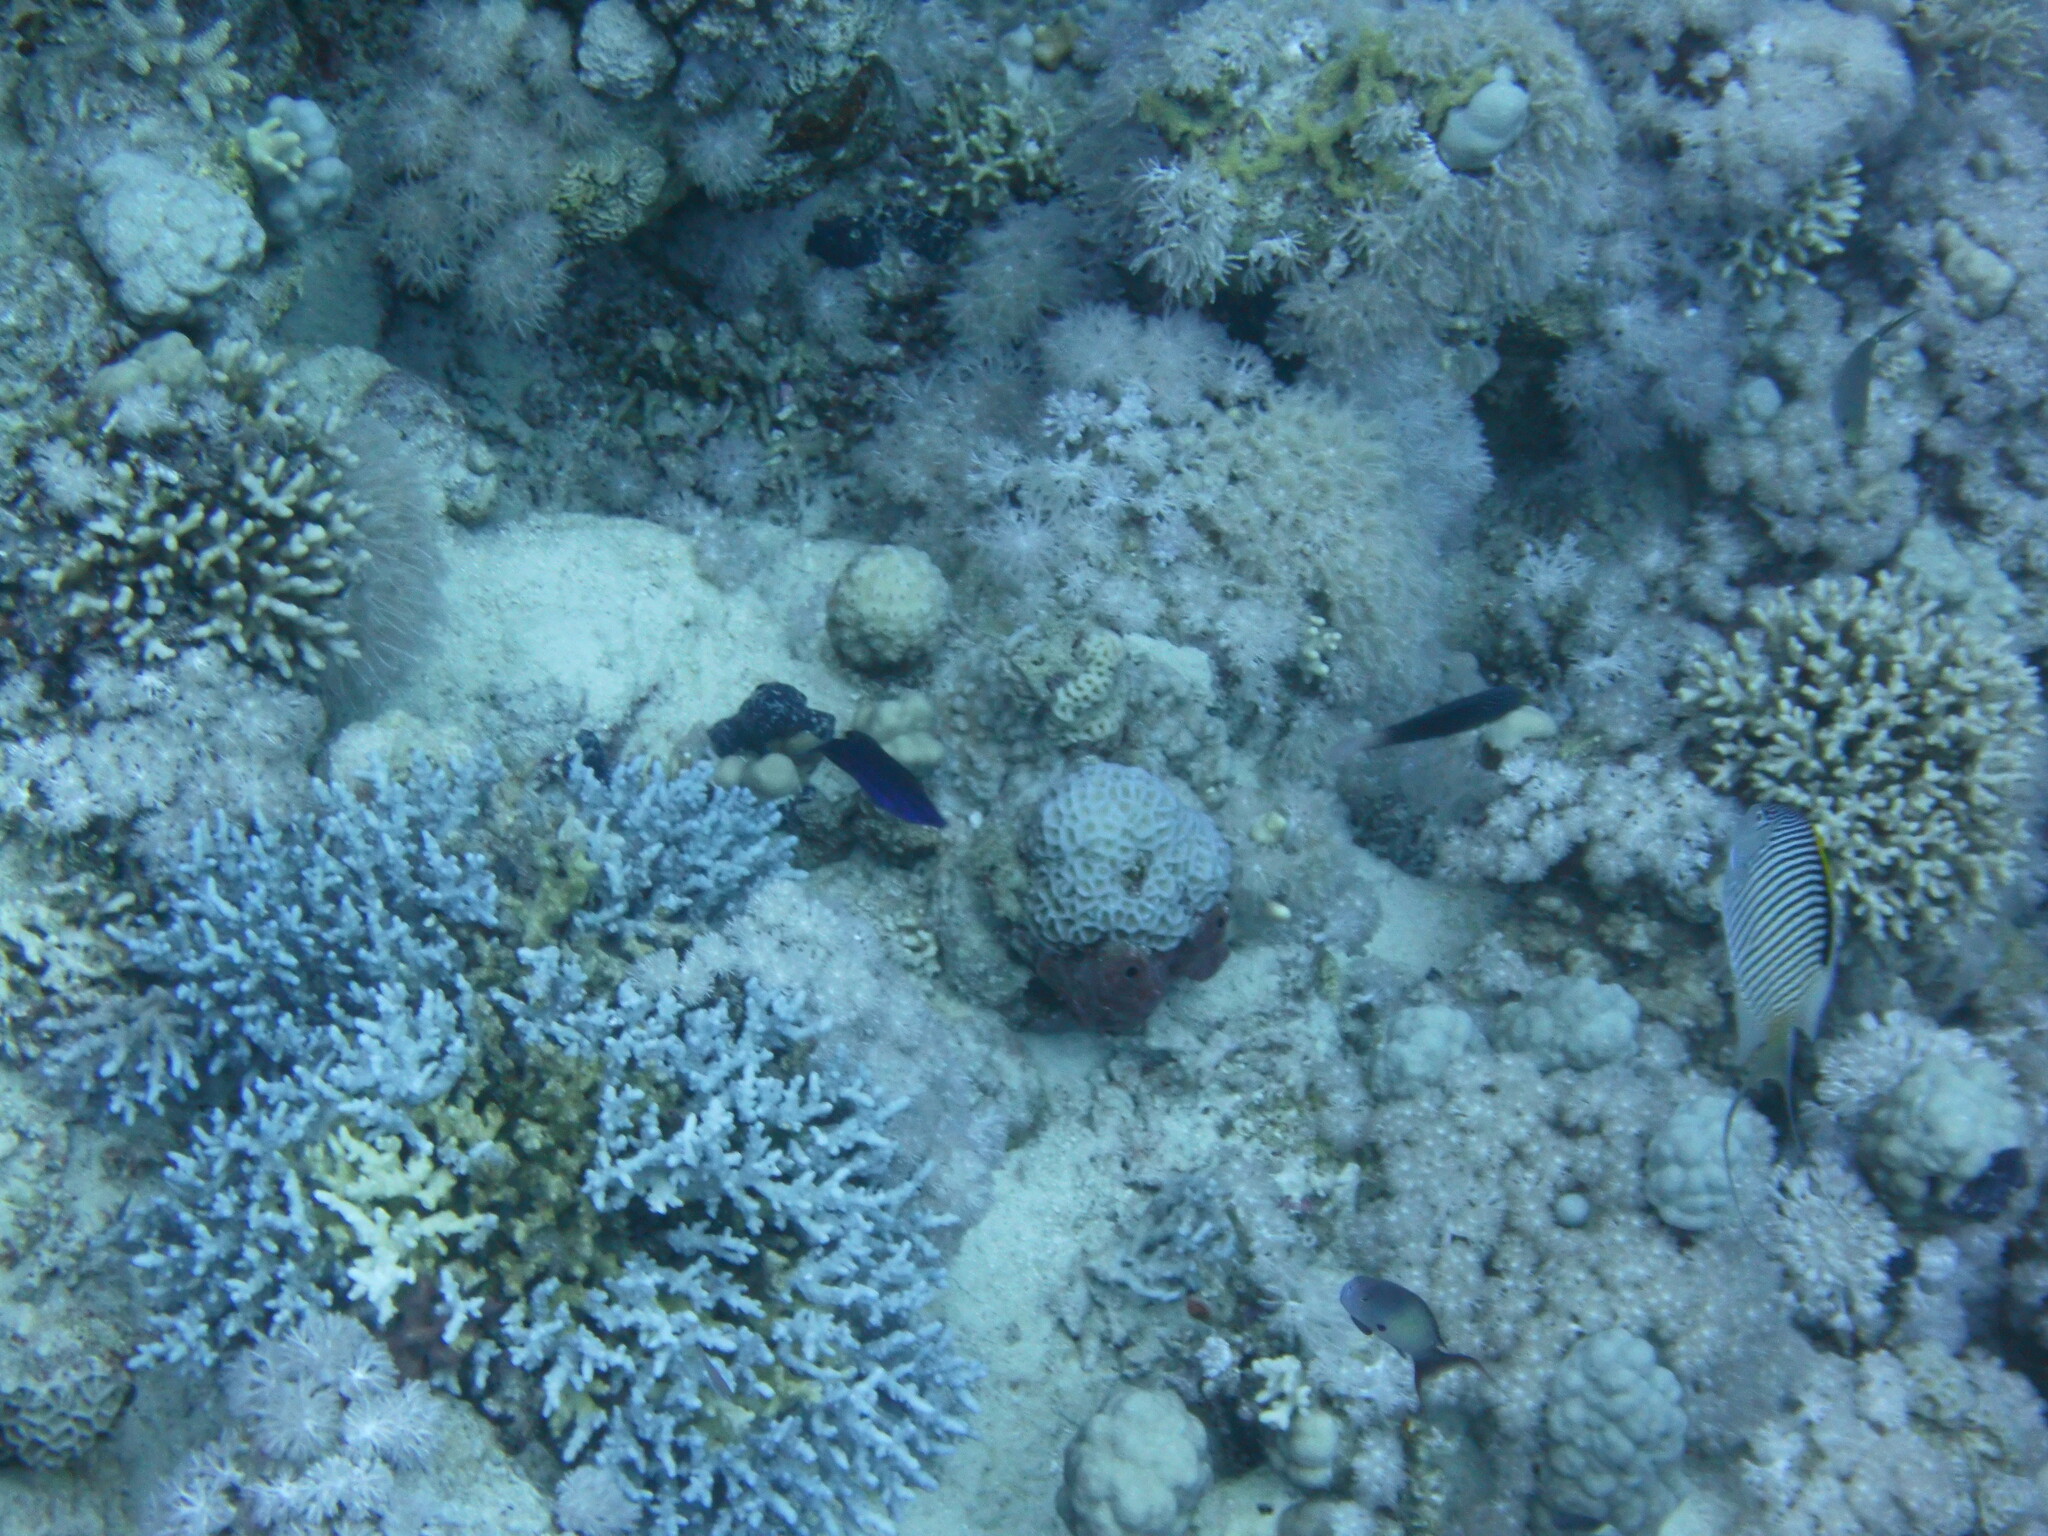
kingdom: Animalia
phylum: Chordata
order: Perciformes
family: Pomacanthidae
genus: Genicanthus
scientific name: Genicanthus caudovittatus
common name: Lyretail angelfish
